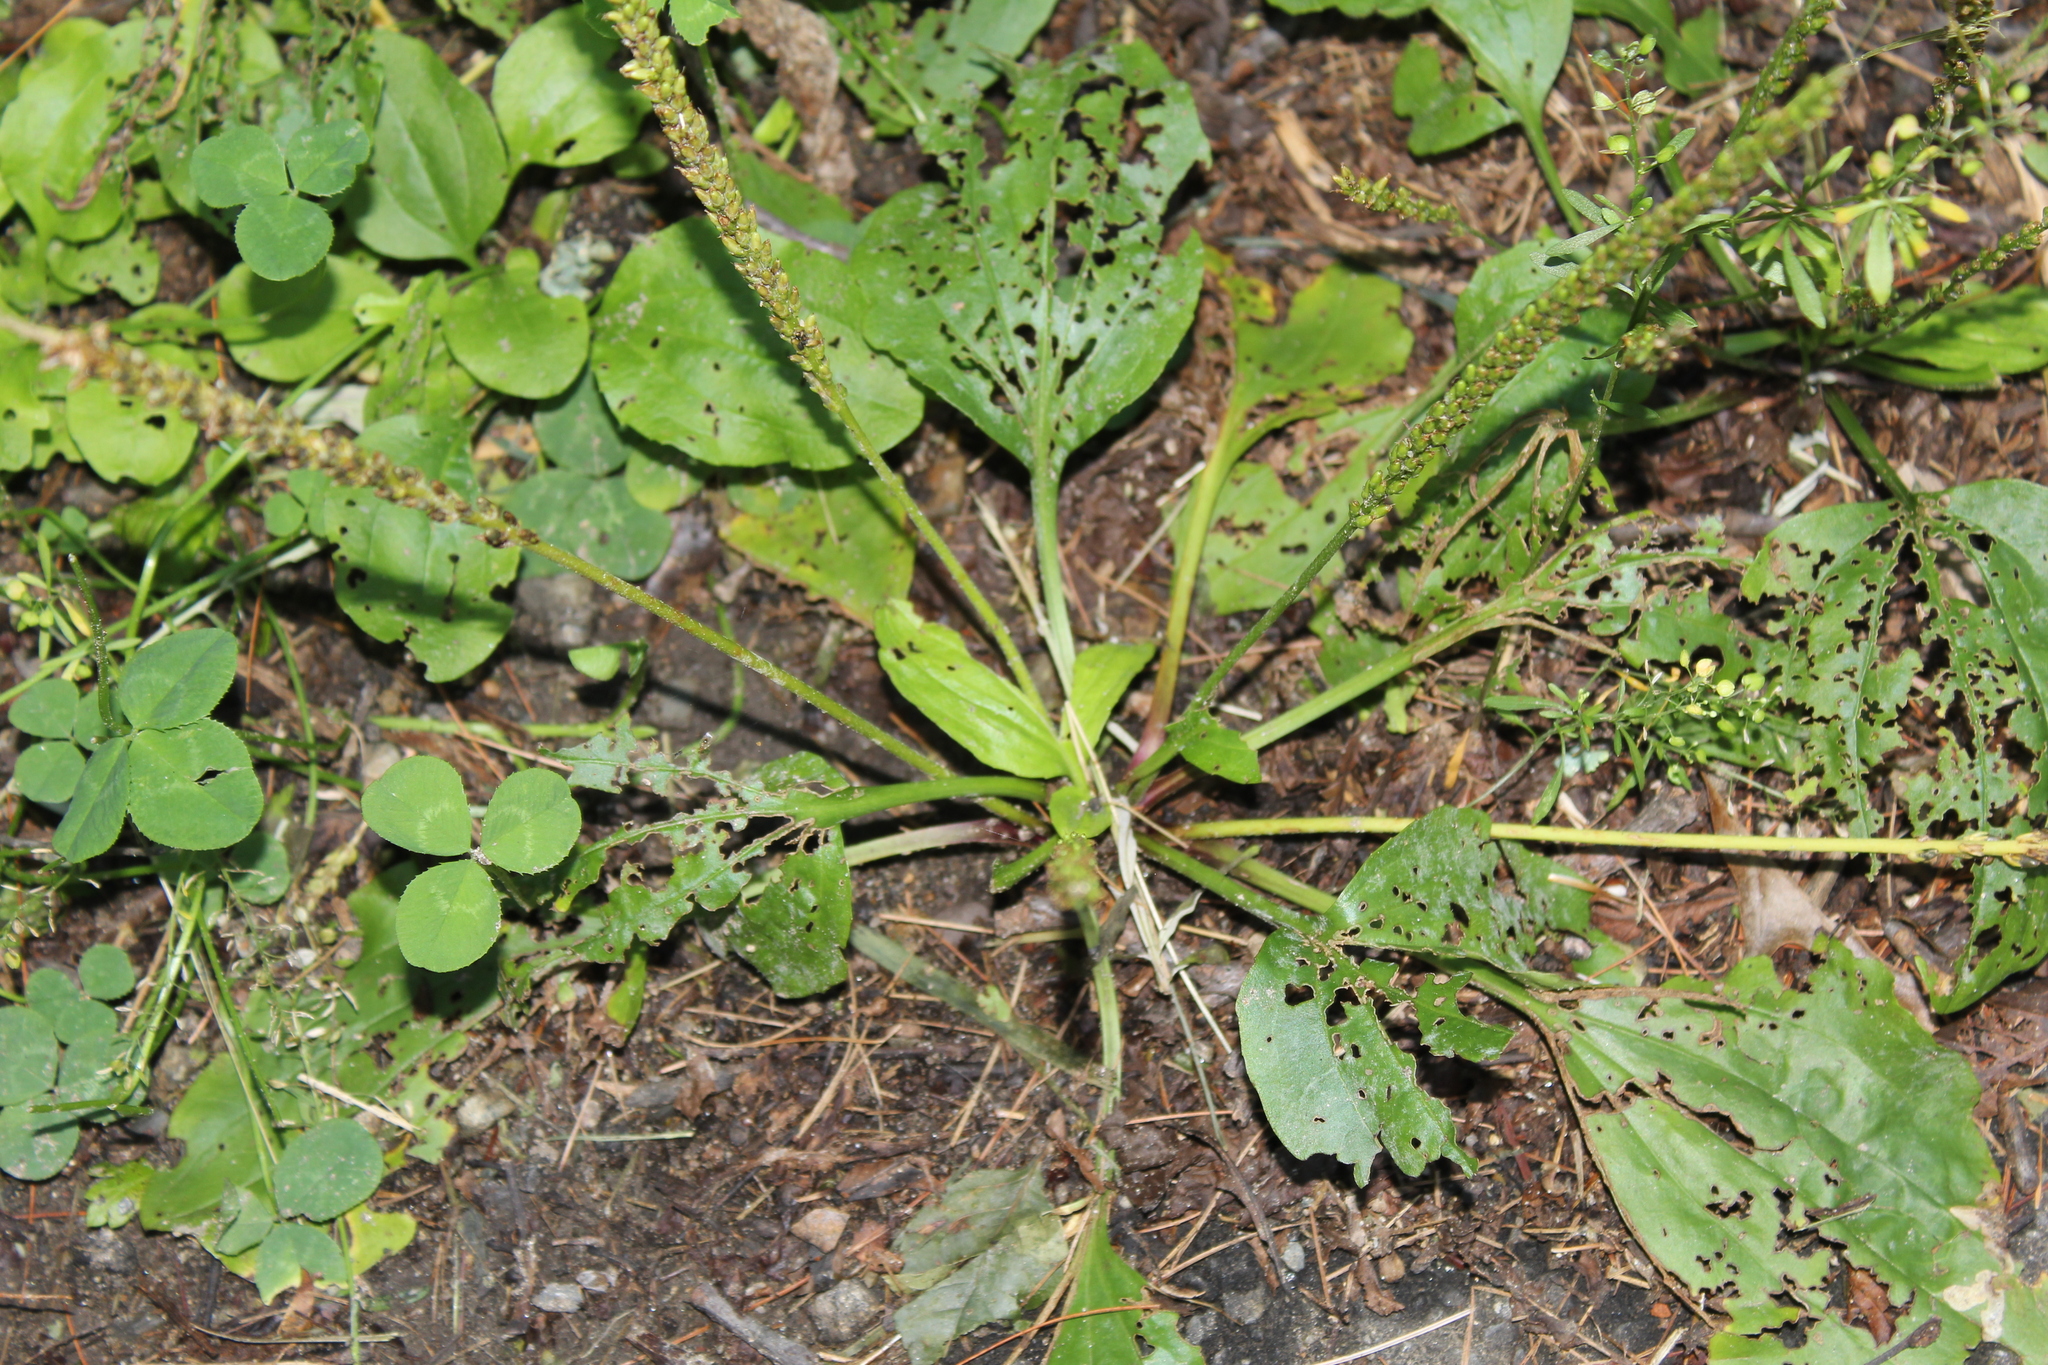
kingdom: Plantae
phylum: Tracheophyta
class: Magnoliopsida
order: Lamiales
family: Plantaginaceae
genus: Plantago
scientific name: Plantago major
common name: Common plantain
